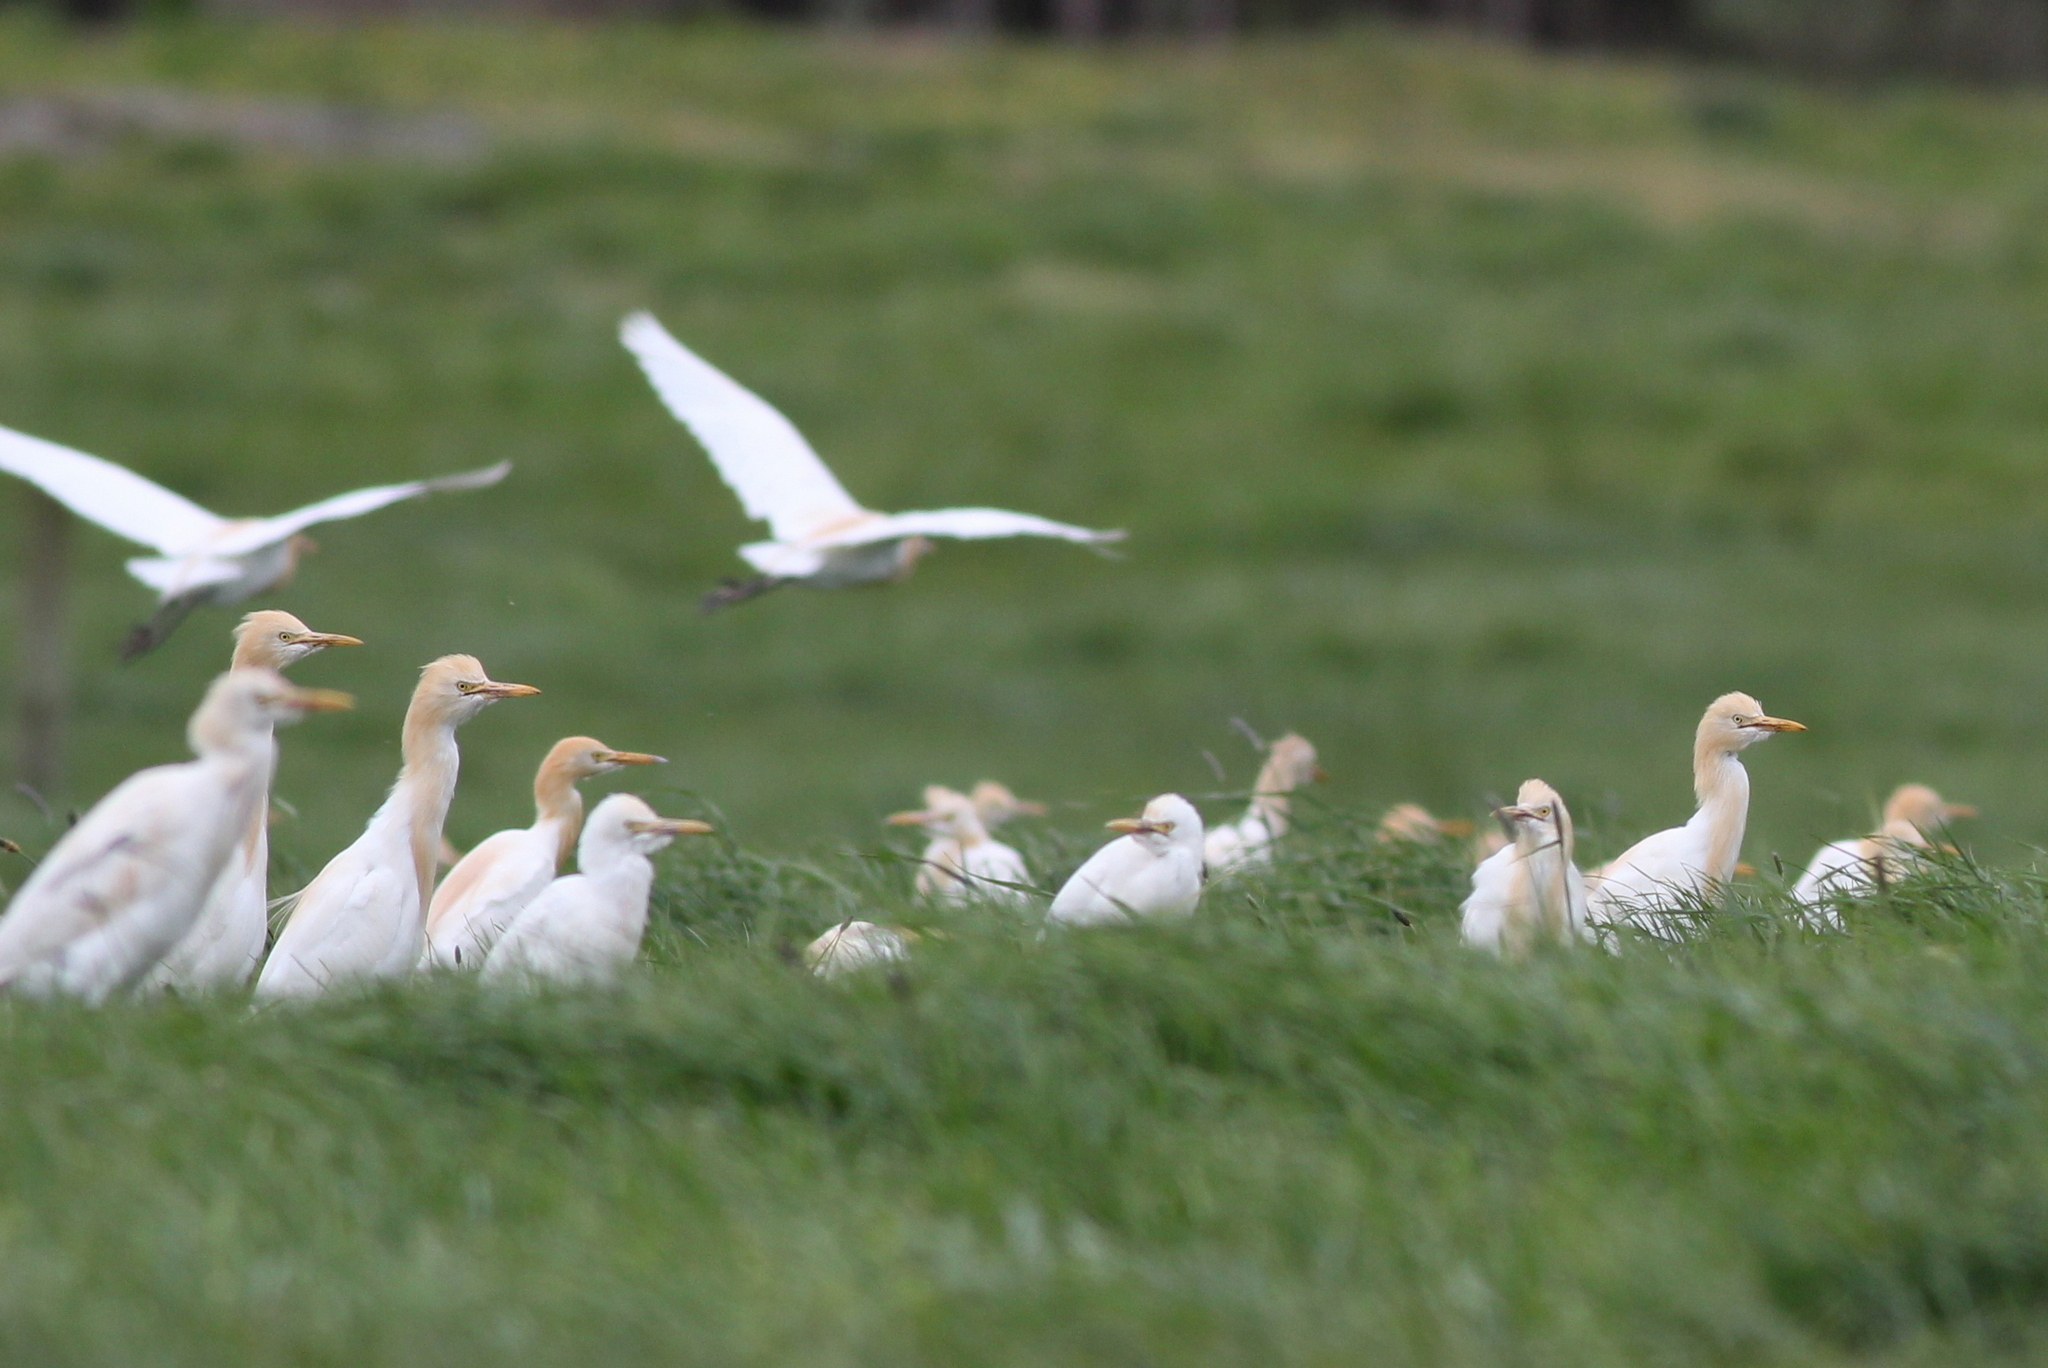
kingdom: Animalia
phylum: Chordata
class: Aves
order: Pelecaniformes
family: Ardeidae
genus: Bubulcus
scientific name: Bubulcus coromandus
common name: Eastern cattle egret
